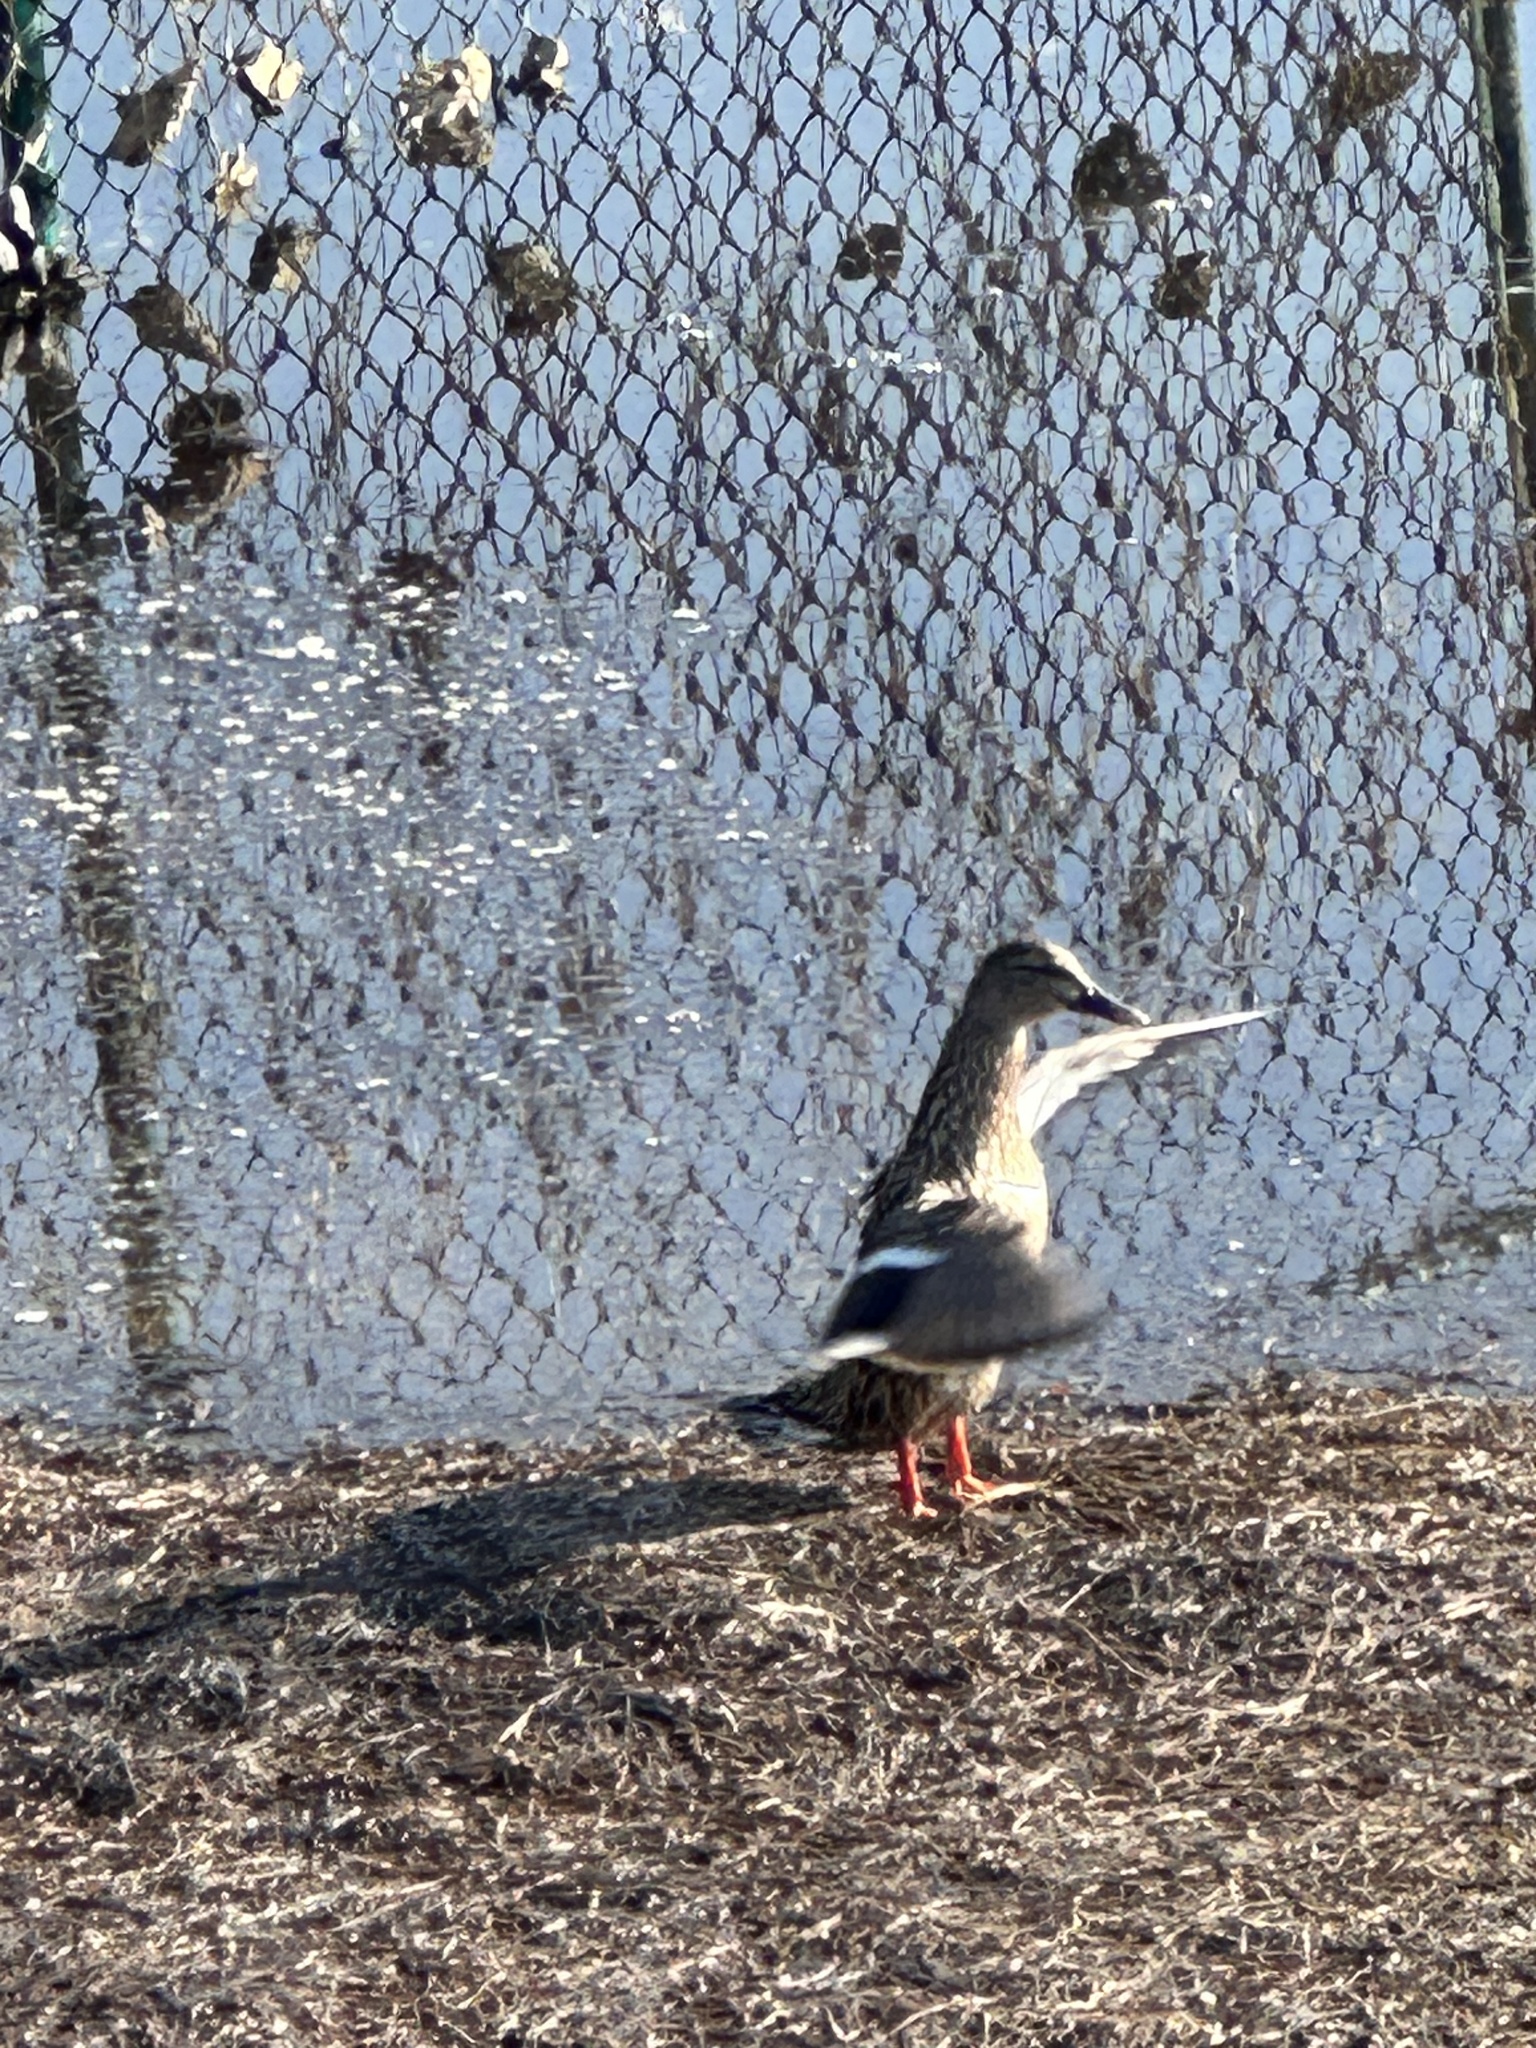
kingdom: Animalia
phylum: Chordata
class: Aves
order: Anseriformes
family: Anatidae
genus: Anas
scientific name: Anas platyrhynchos
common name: Mallard
